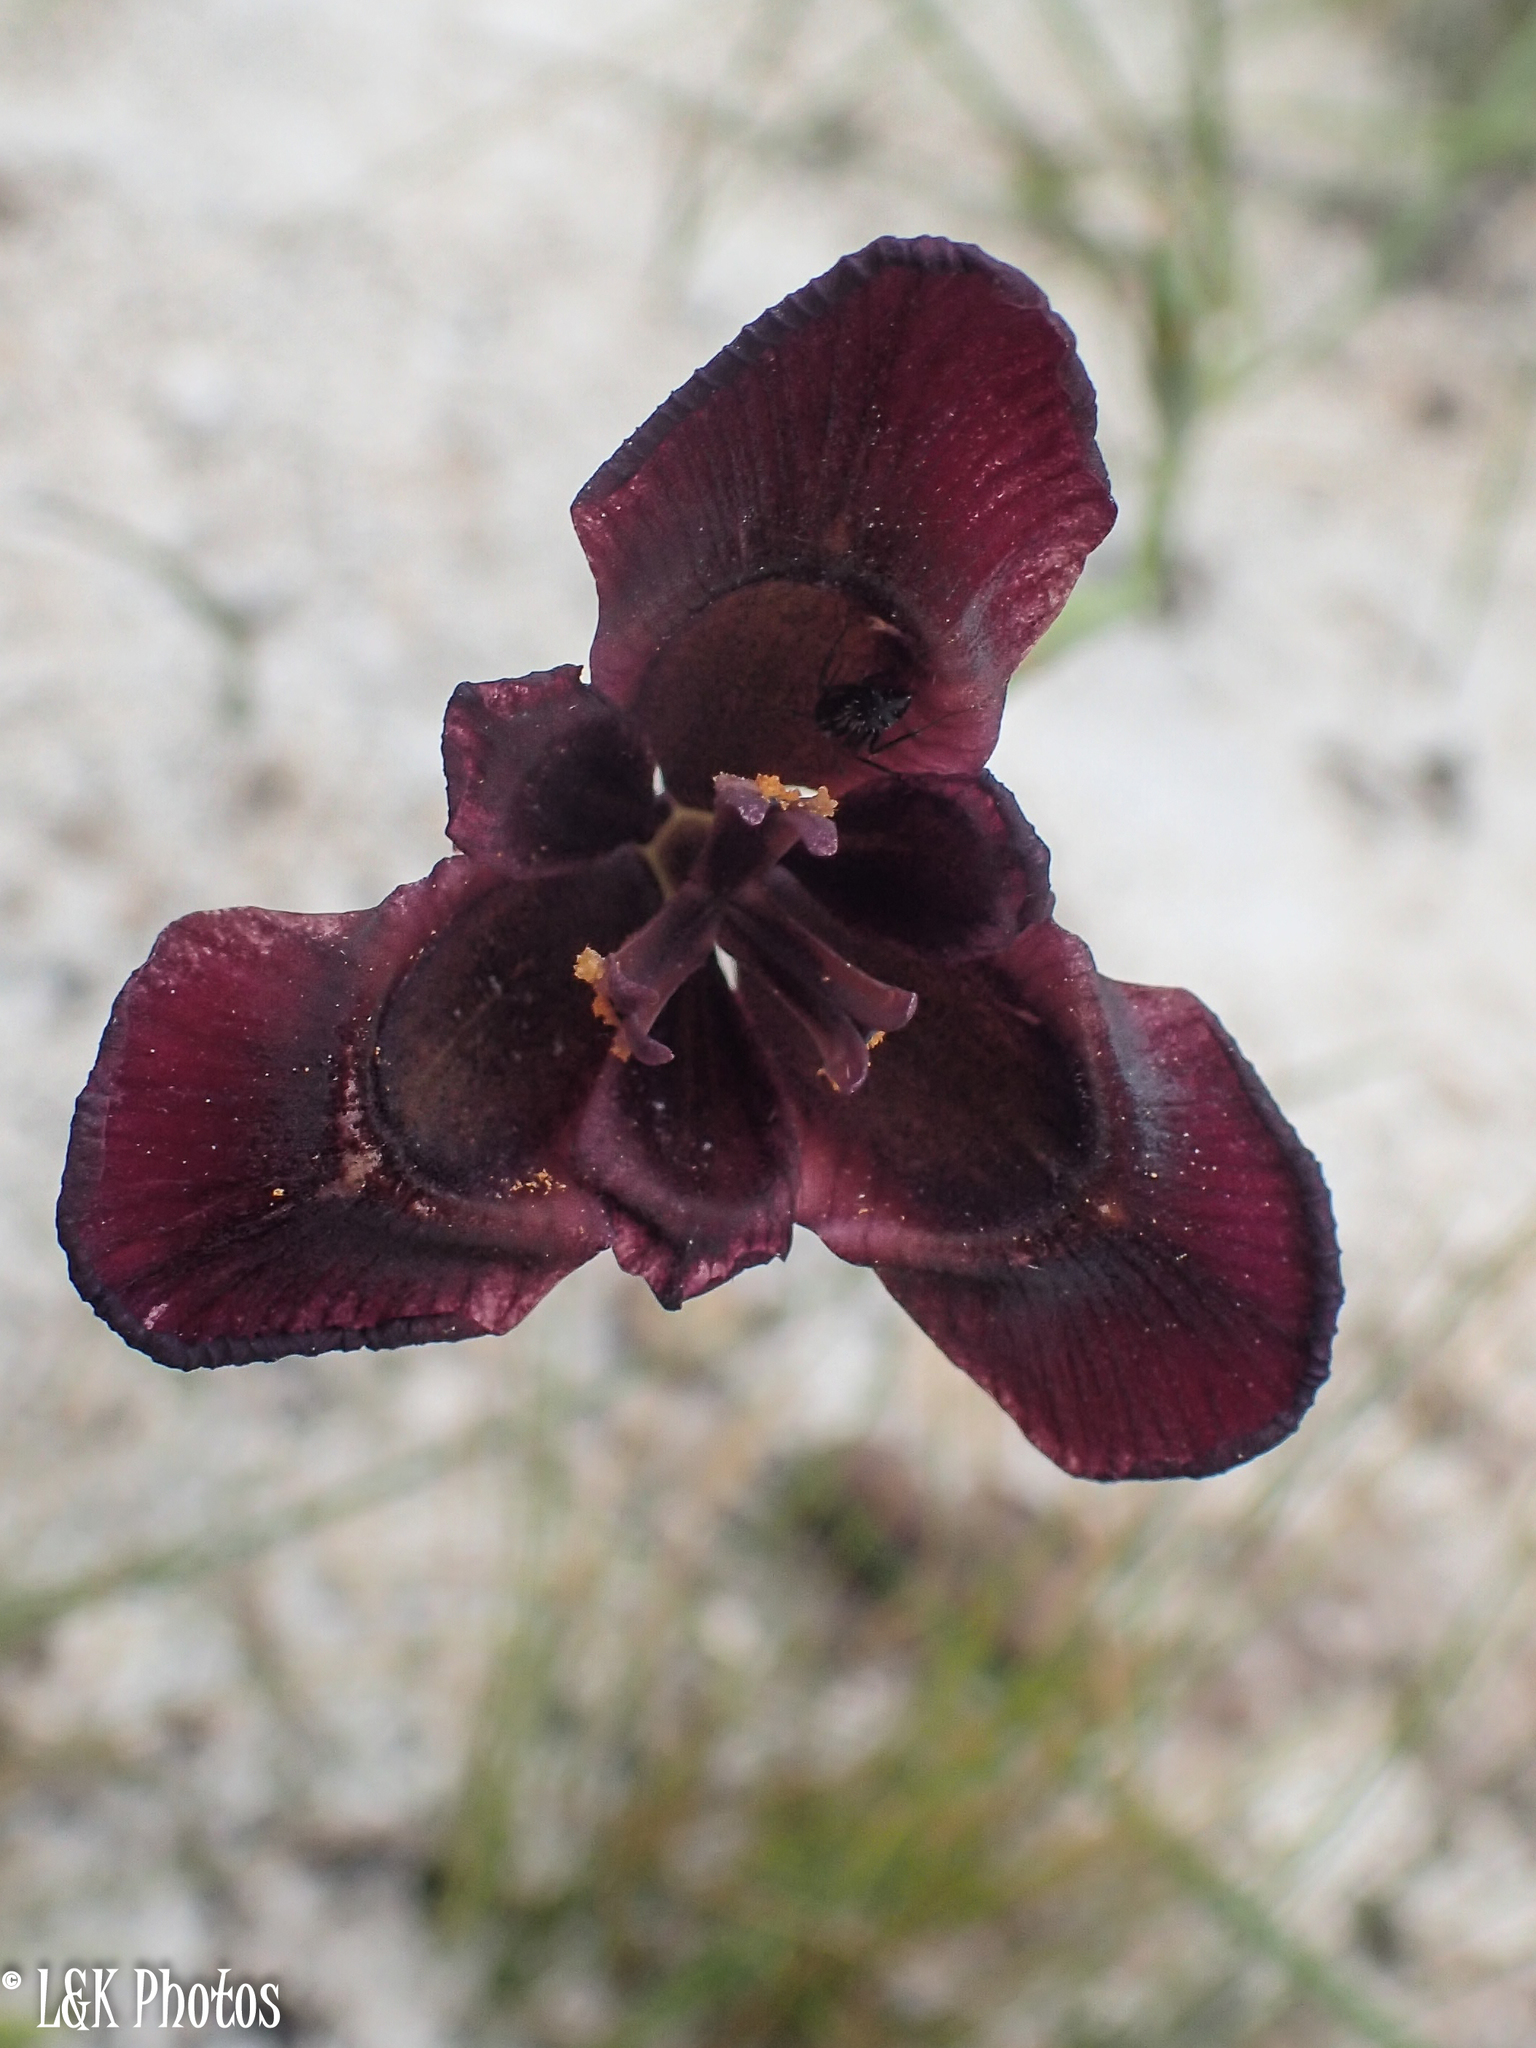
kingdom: Plantae
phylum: Tracheophyta
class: Liliopsida
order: Asparagales
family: Iridaceae
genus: Moraea
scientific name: Moraea lurida
